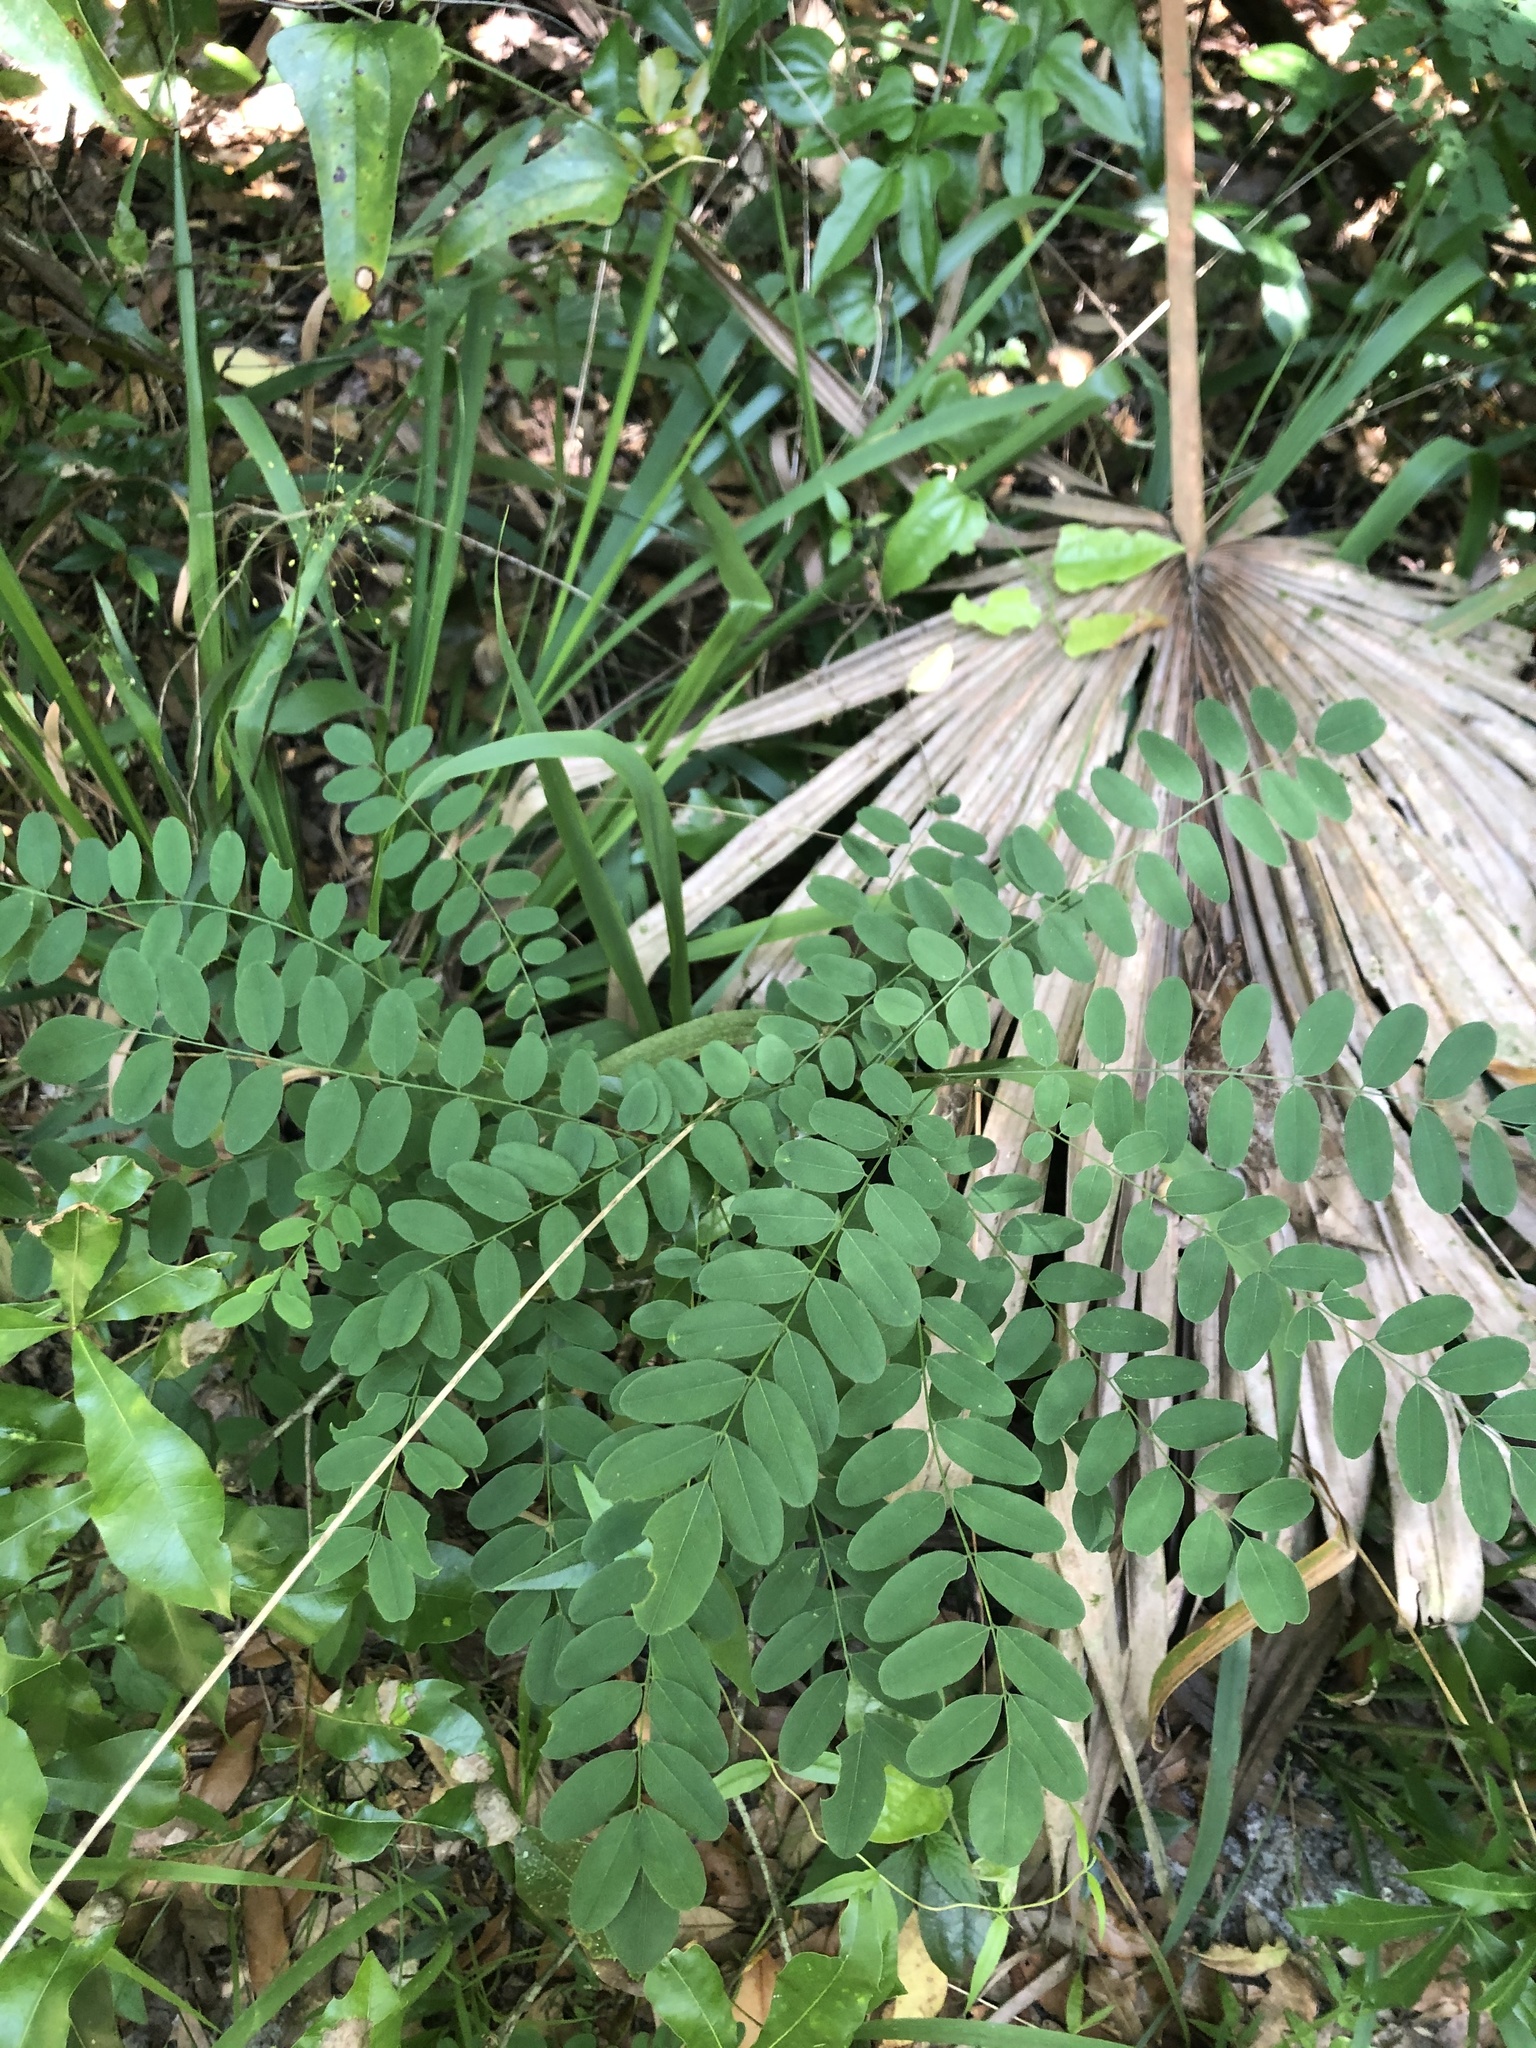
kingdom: Plantae
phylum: Tracheophyta
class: Magnoliopsida
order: Fabales
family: Fabaceae
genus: Amorpha
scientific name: Amorpha fruticosa
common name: False indigo
